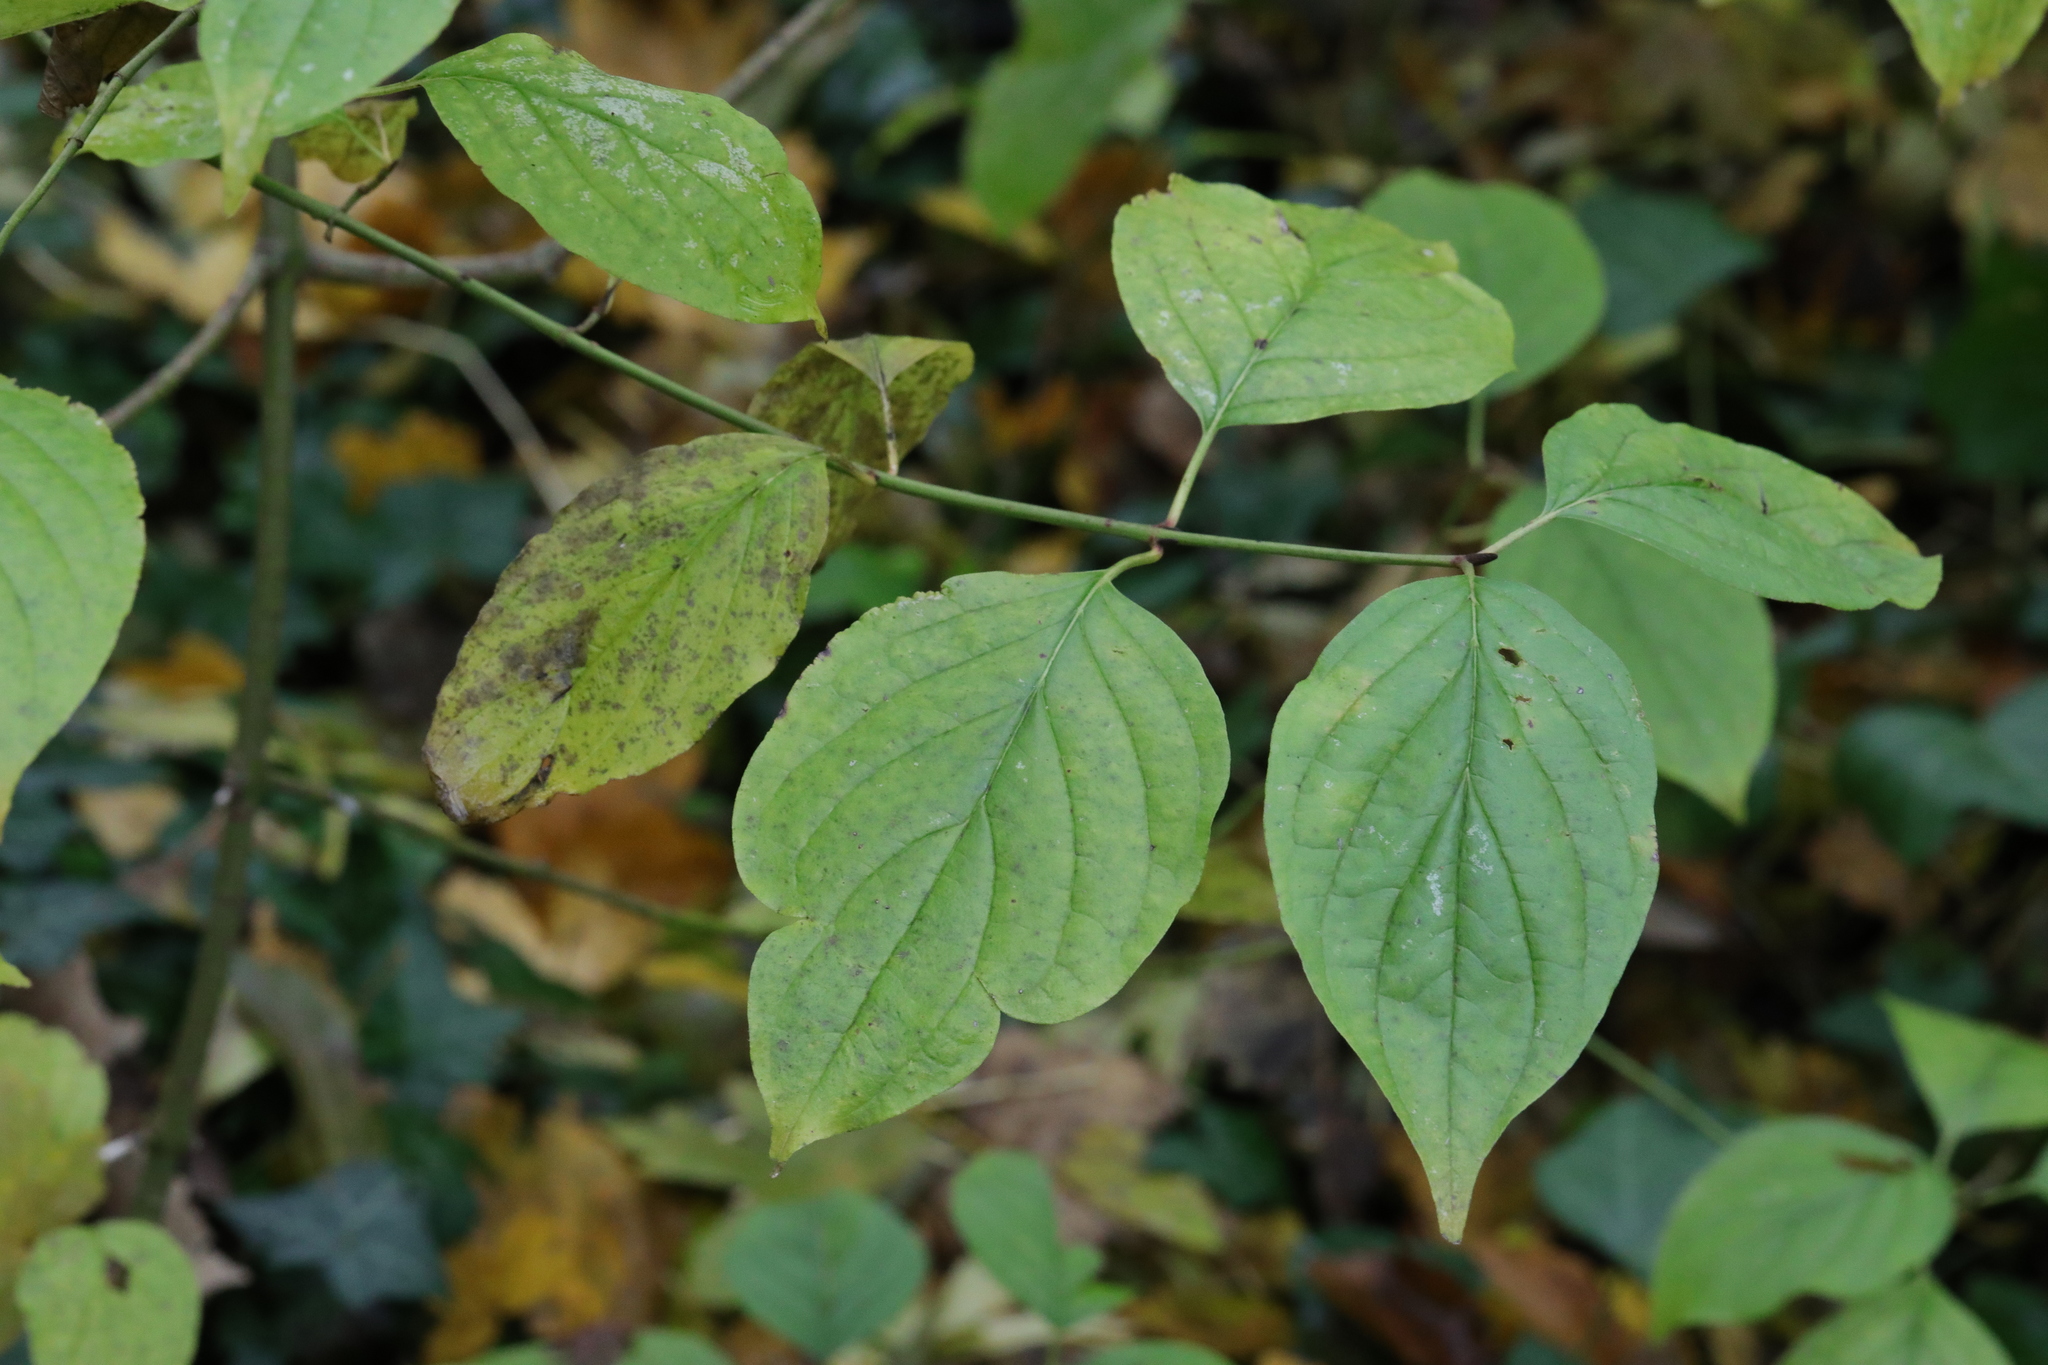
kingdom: Plantae
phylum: Tracheophyta
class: Magnoliopsida
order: Cornales
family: Cornaceae
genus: Cornus
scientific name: Cornus sanguinea
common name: Dogwood
